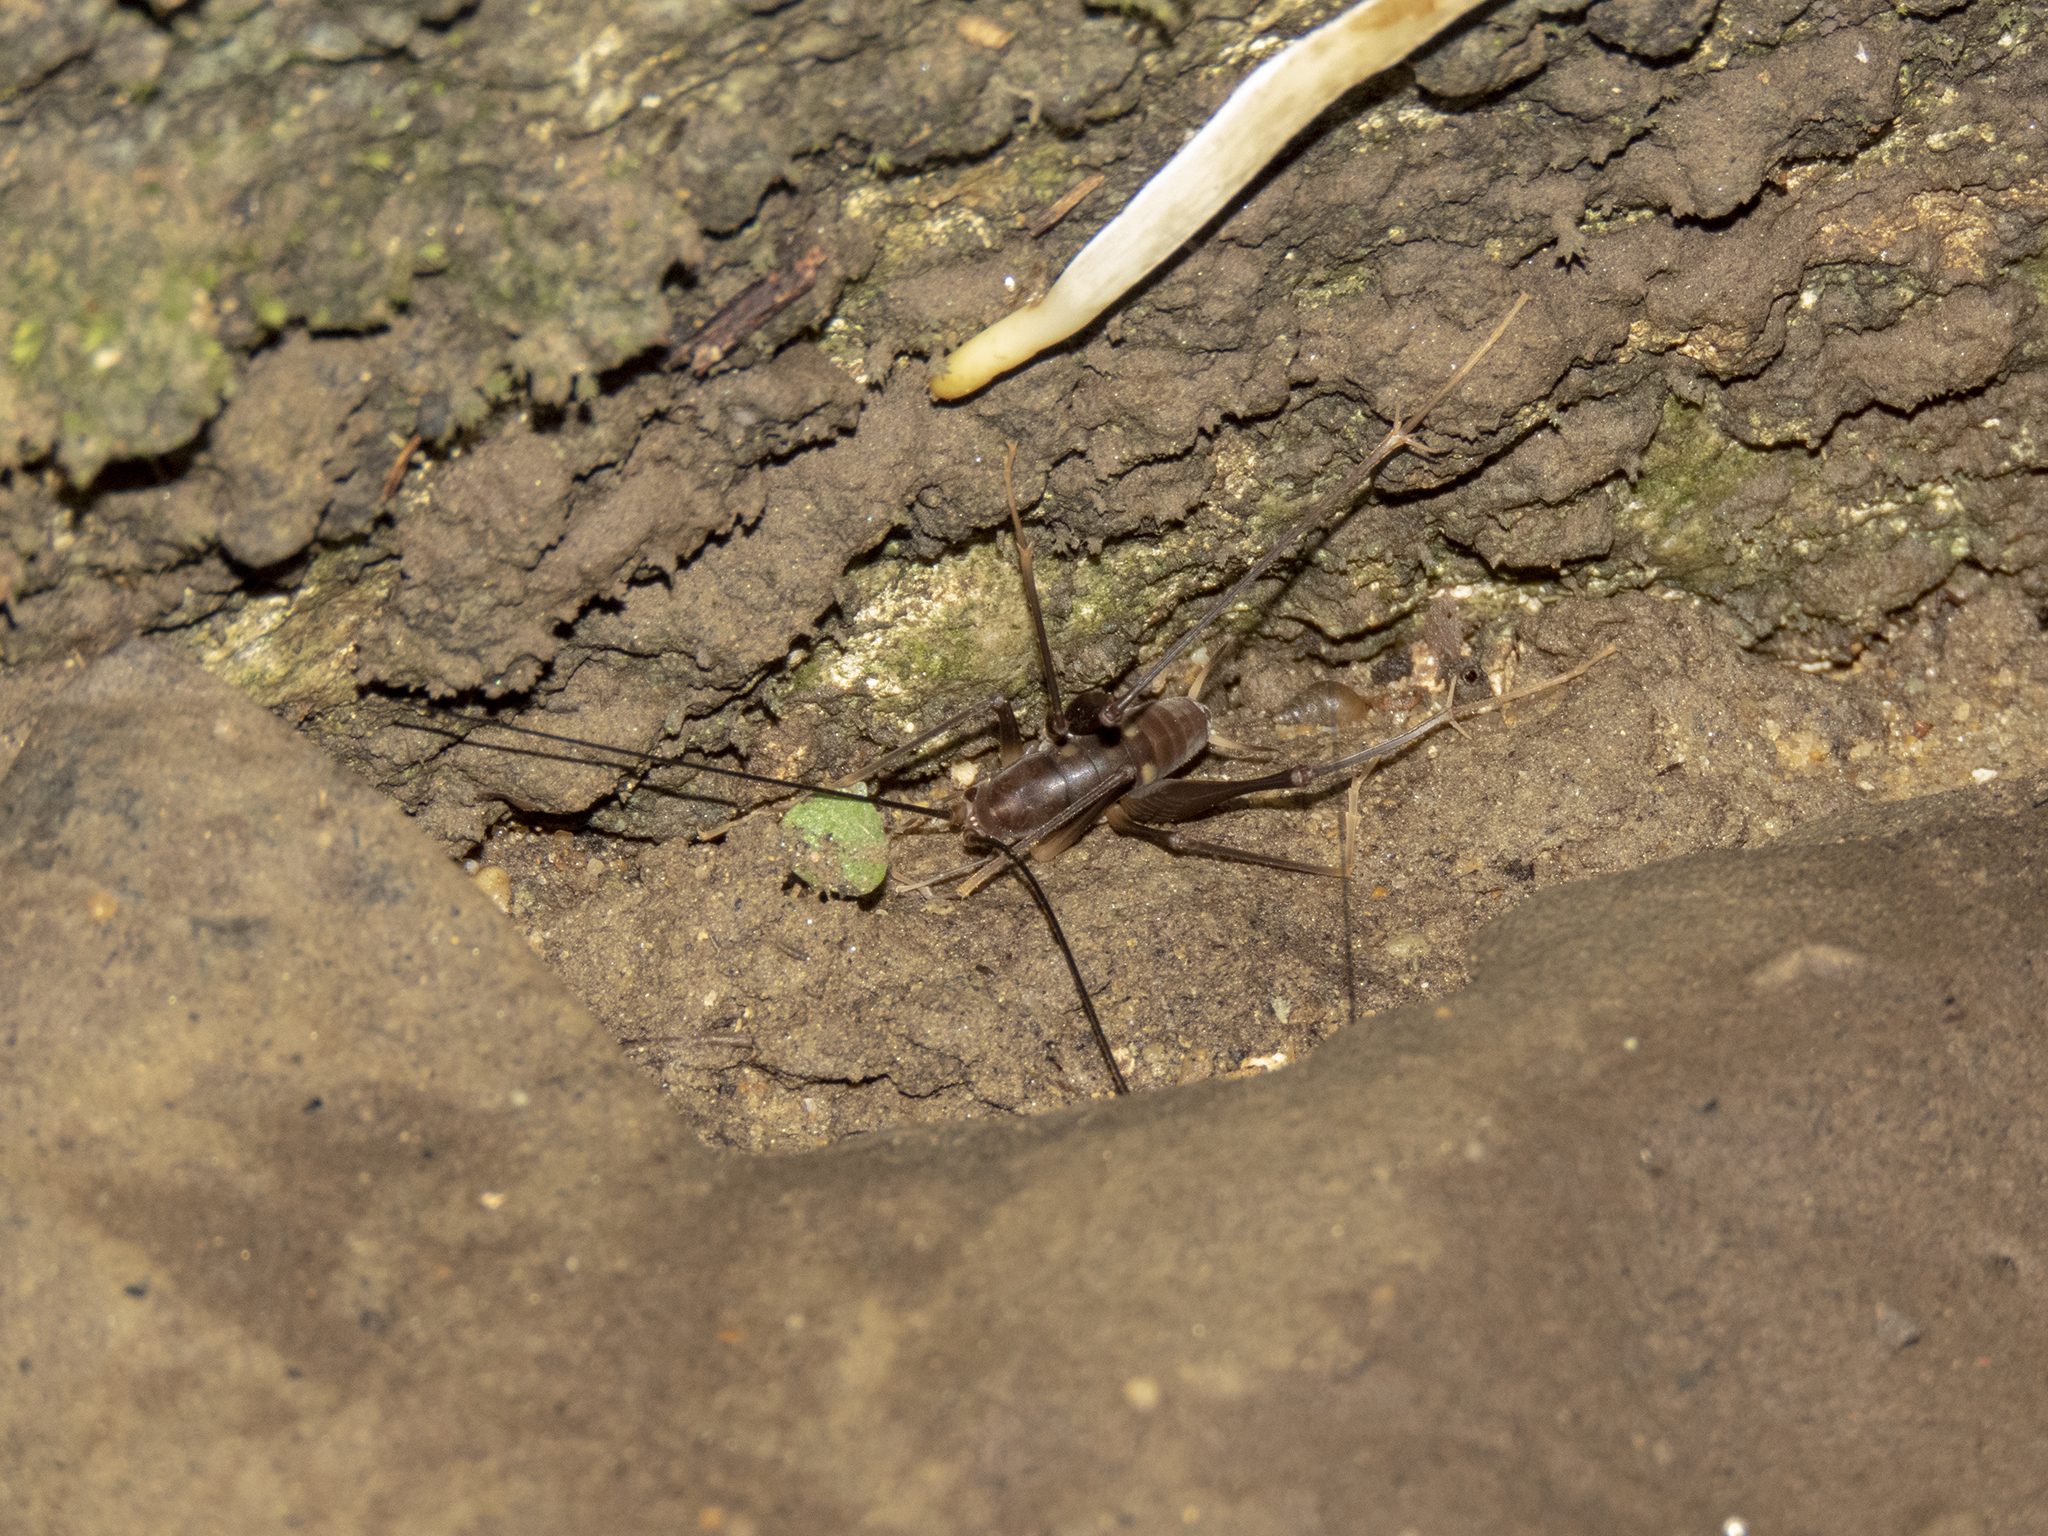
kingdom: Animalia
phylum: Arthropoda
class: Insecta
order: Orthoptera
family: Rhaphidophoridae
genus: Macropathus
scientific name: Macropathus filifer
